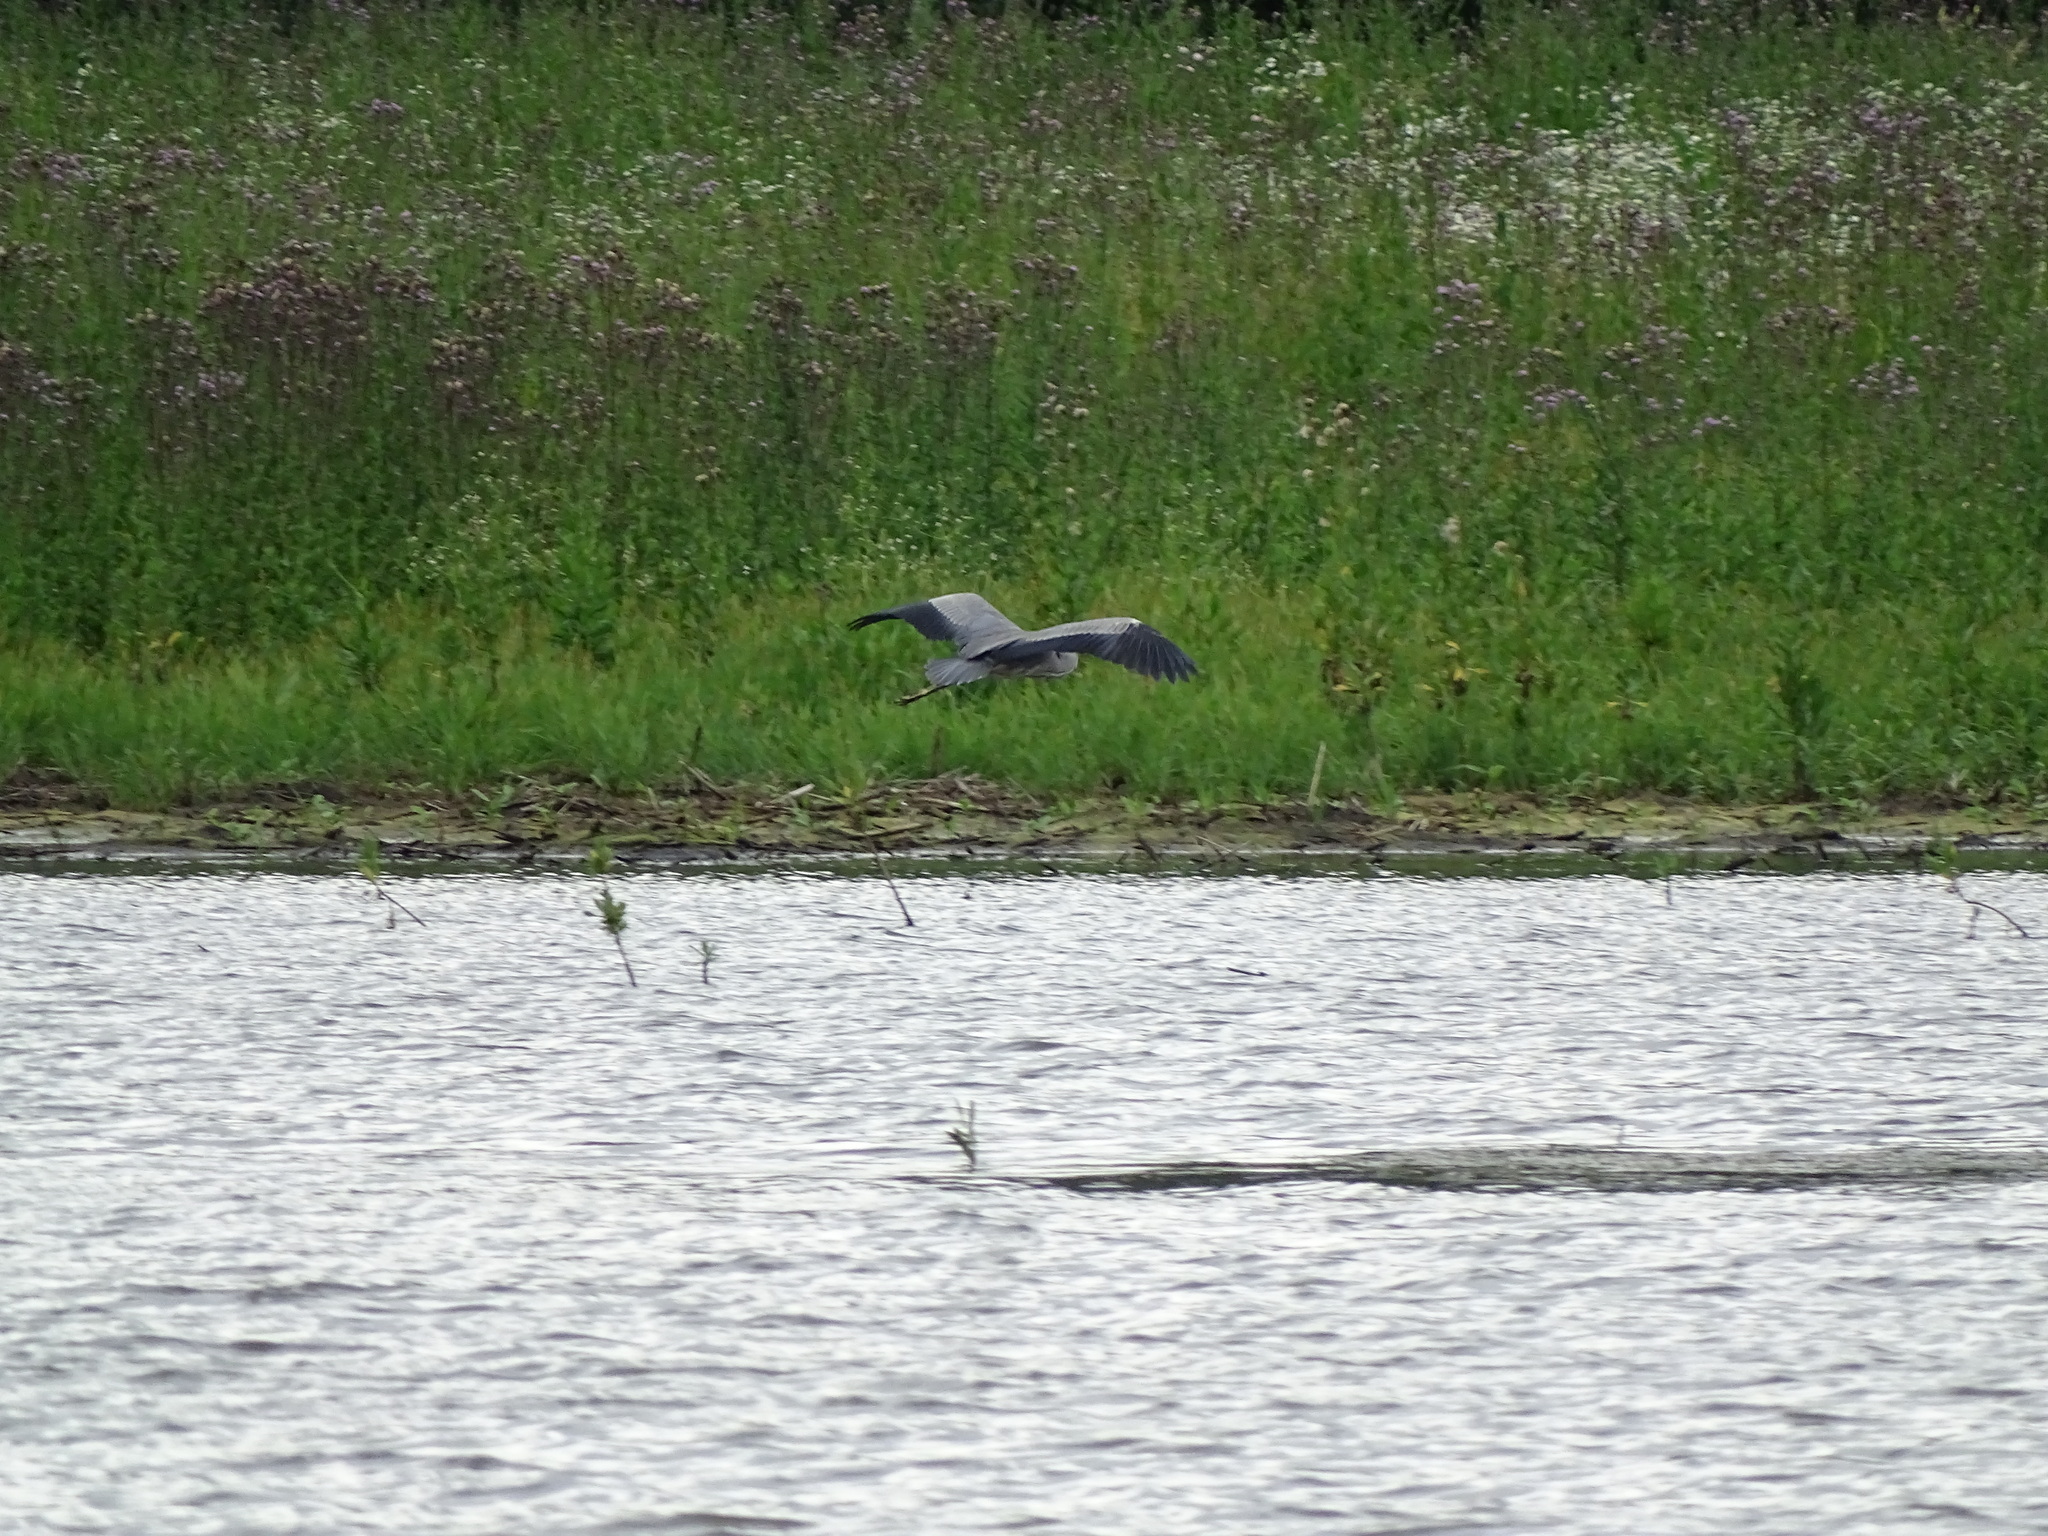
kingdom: Animalia
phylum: Chordata
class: Aves
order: Pelecaniformes
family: Ardeidae
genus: Ardea
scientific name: Ardea cinerea
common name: Grey heron
